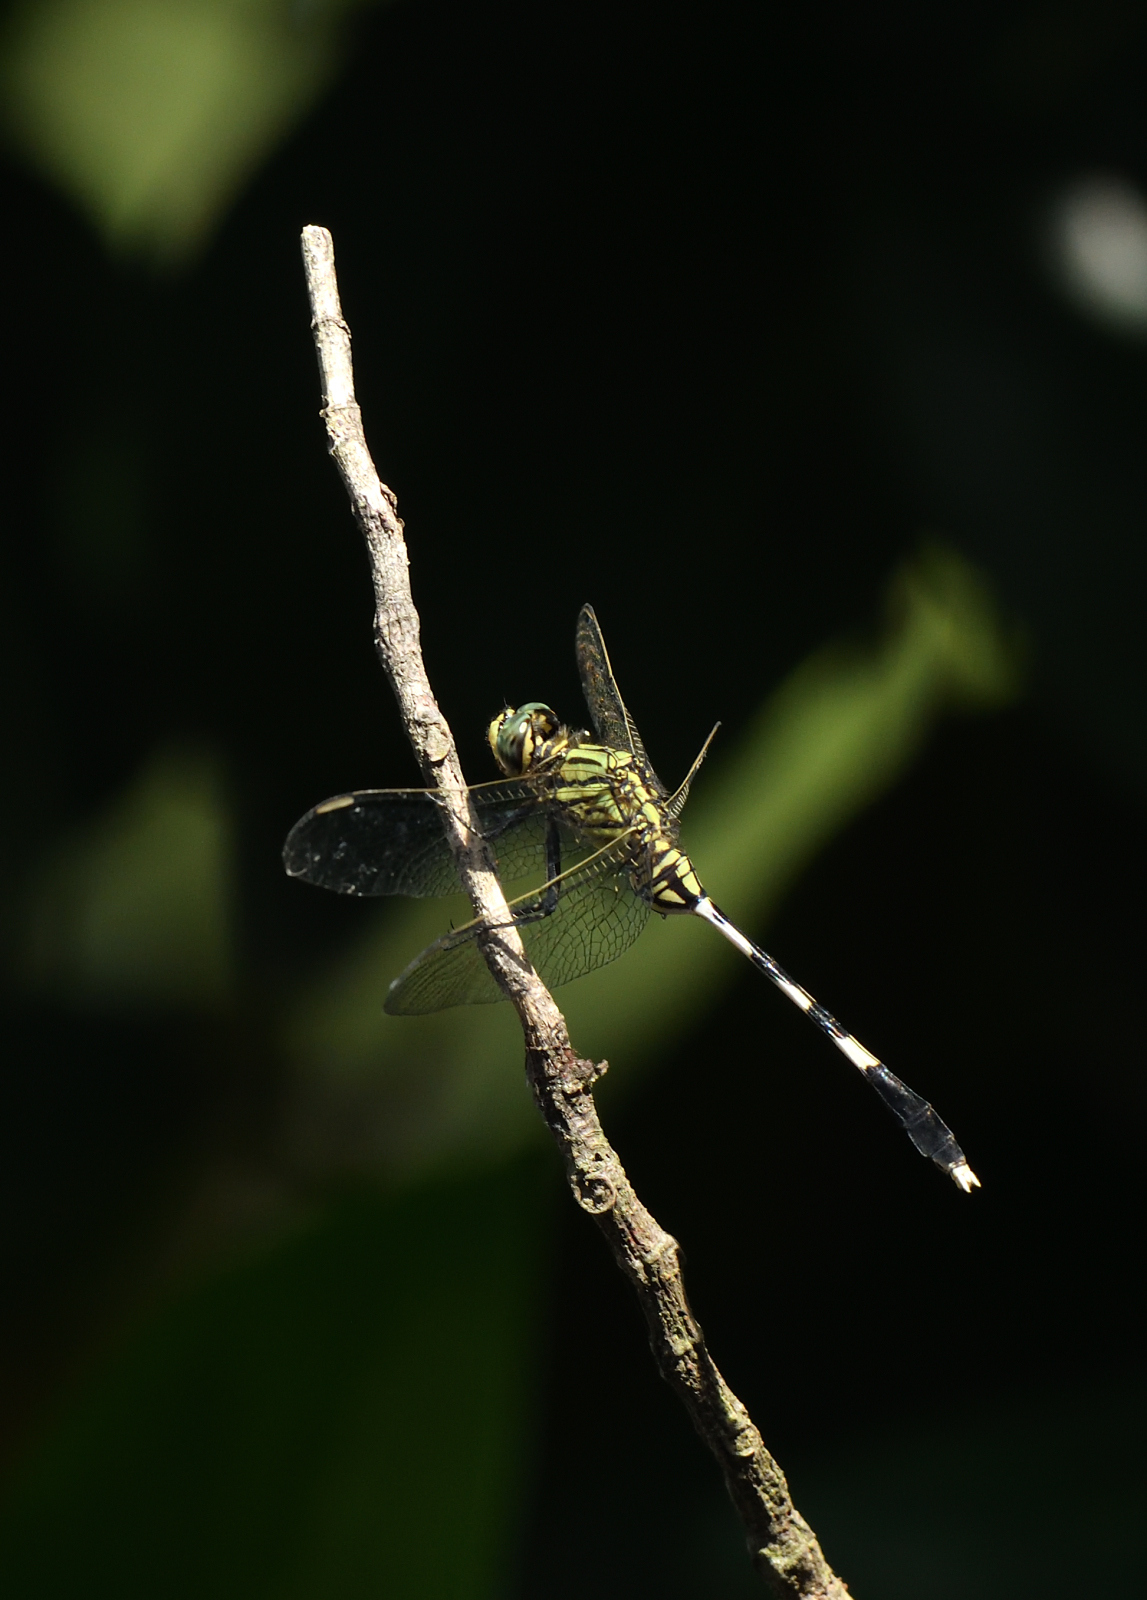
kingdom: Animalia
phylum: Arthropoda
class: Insecta
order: Odonata
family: Libellulidae
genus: Orthetrum
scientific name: Orthetrum sabina
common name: Slender skimmer
